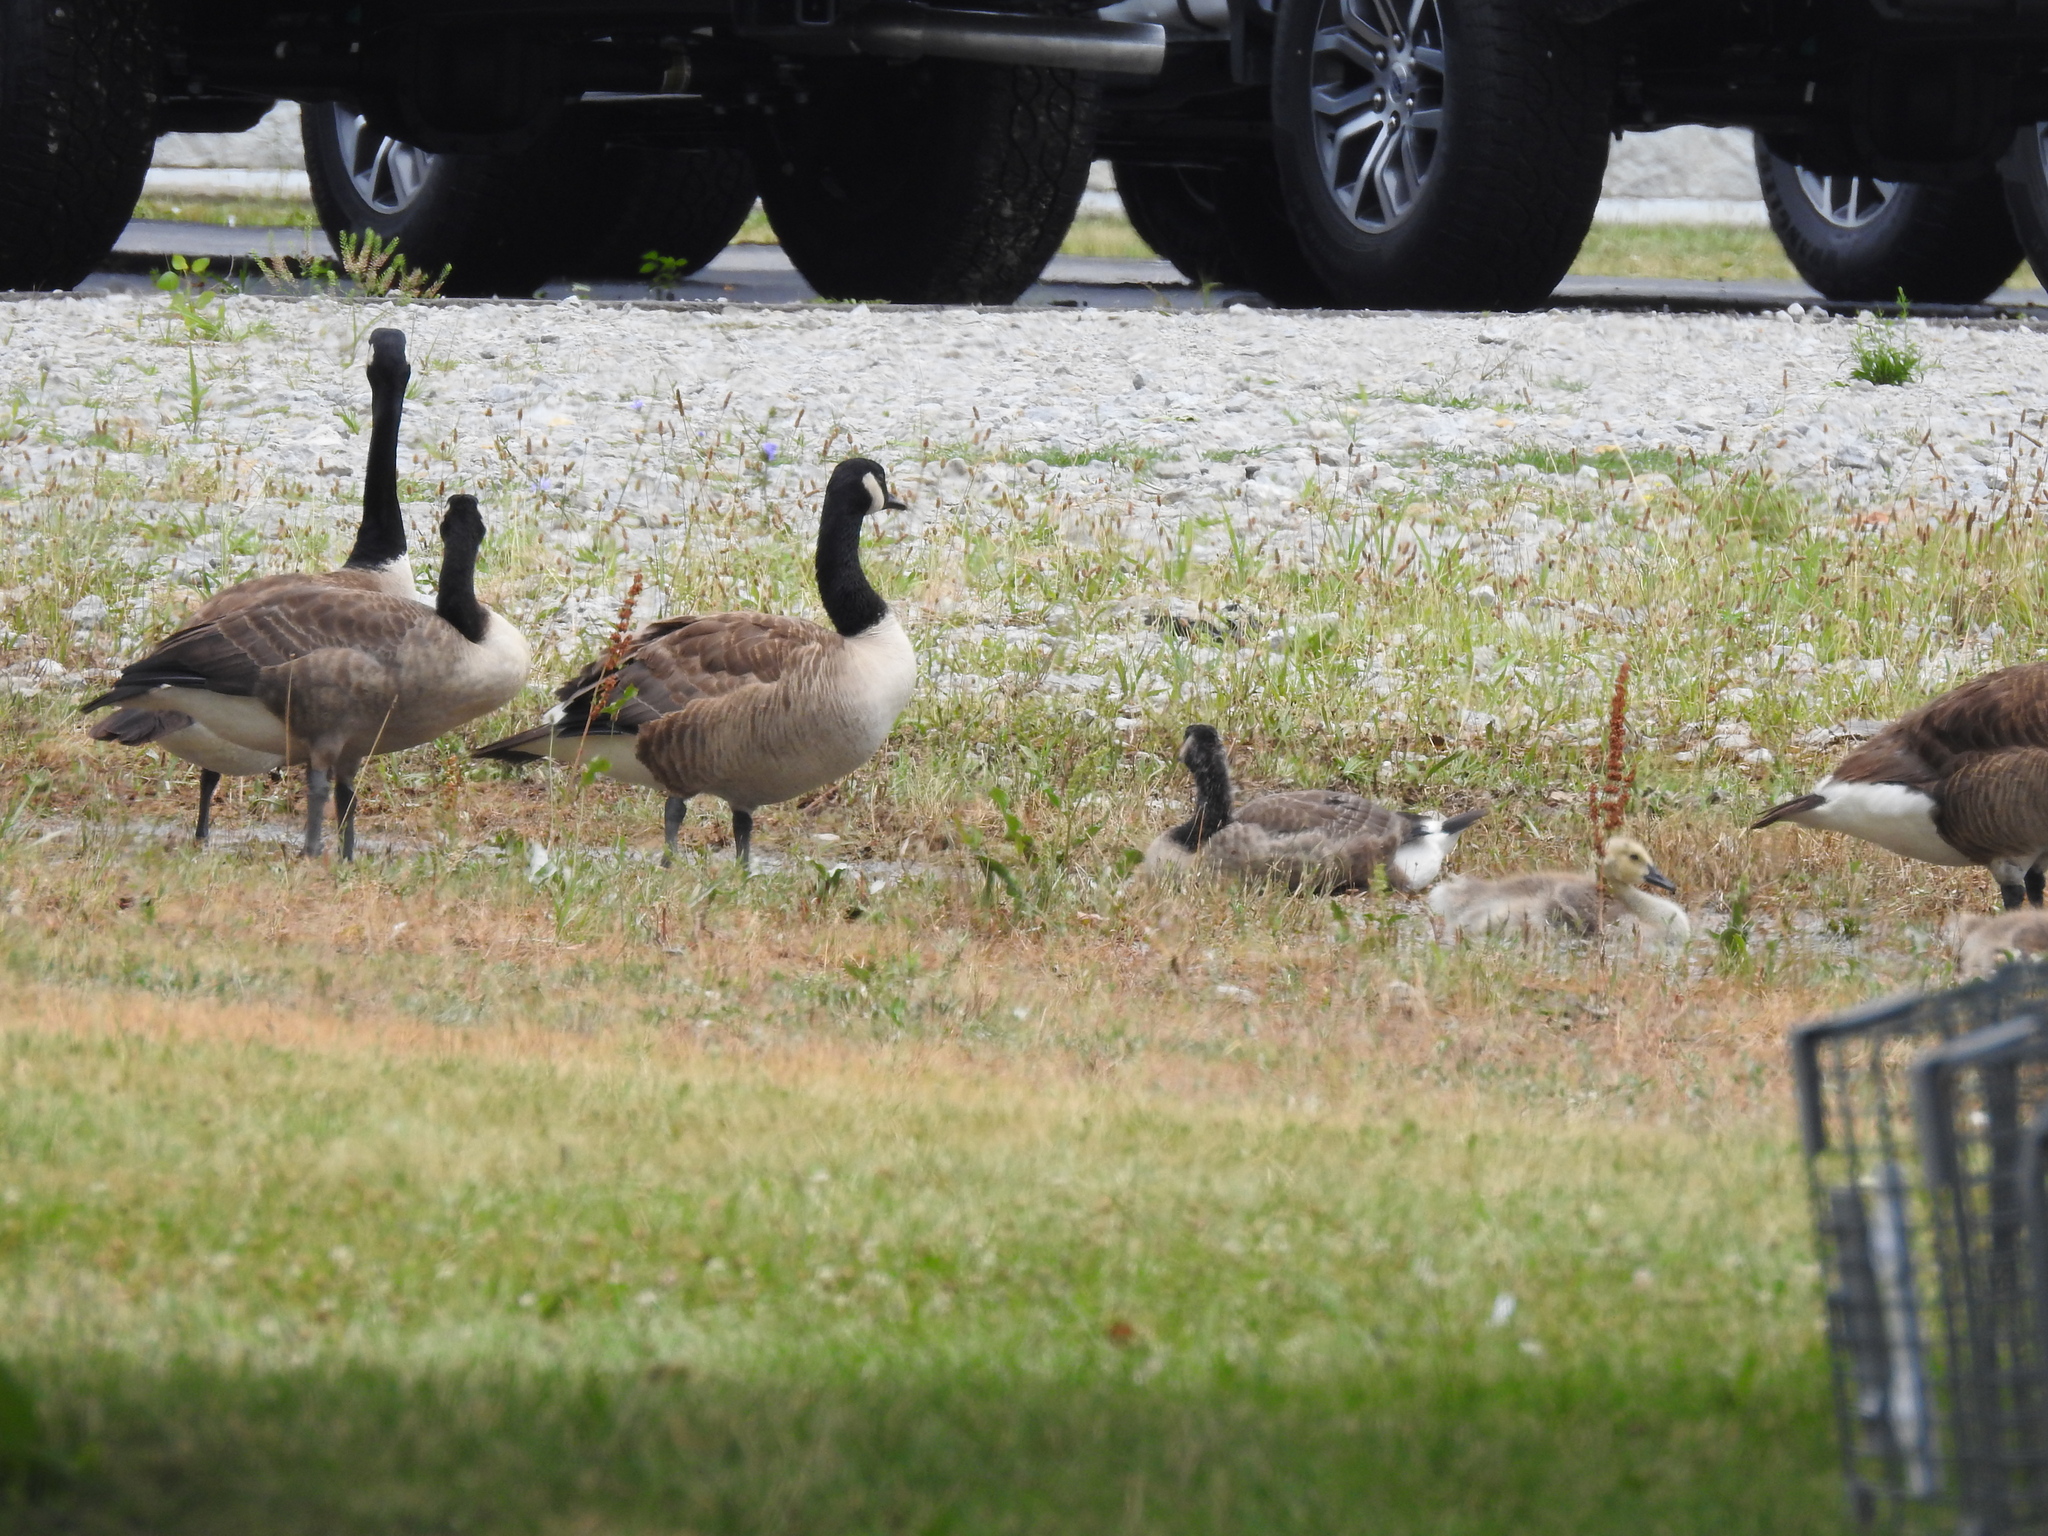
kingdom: Animalia
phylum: Chordata
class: Aves
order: Anseriformes
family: Anatidae
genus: Branta
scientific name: Branta canadensis
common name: Canada goose
